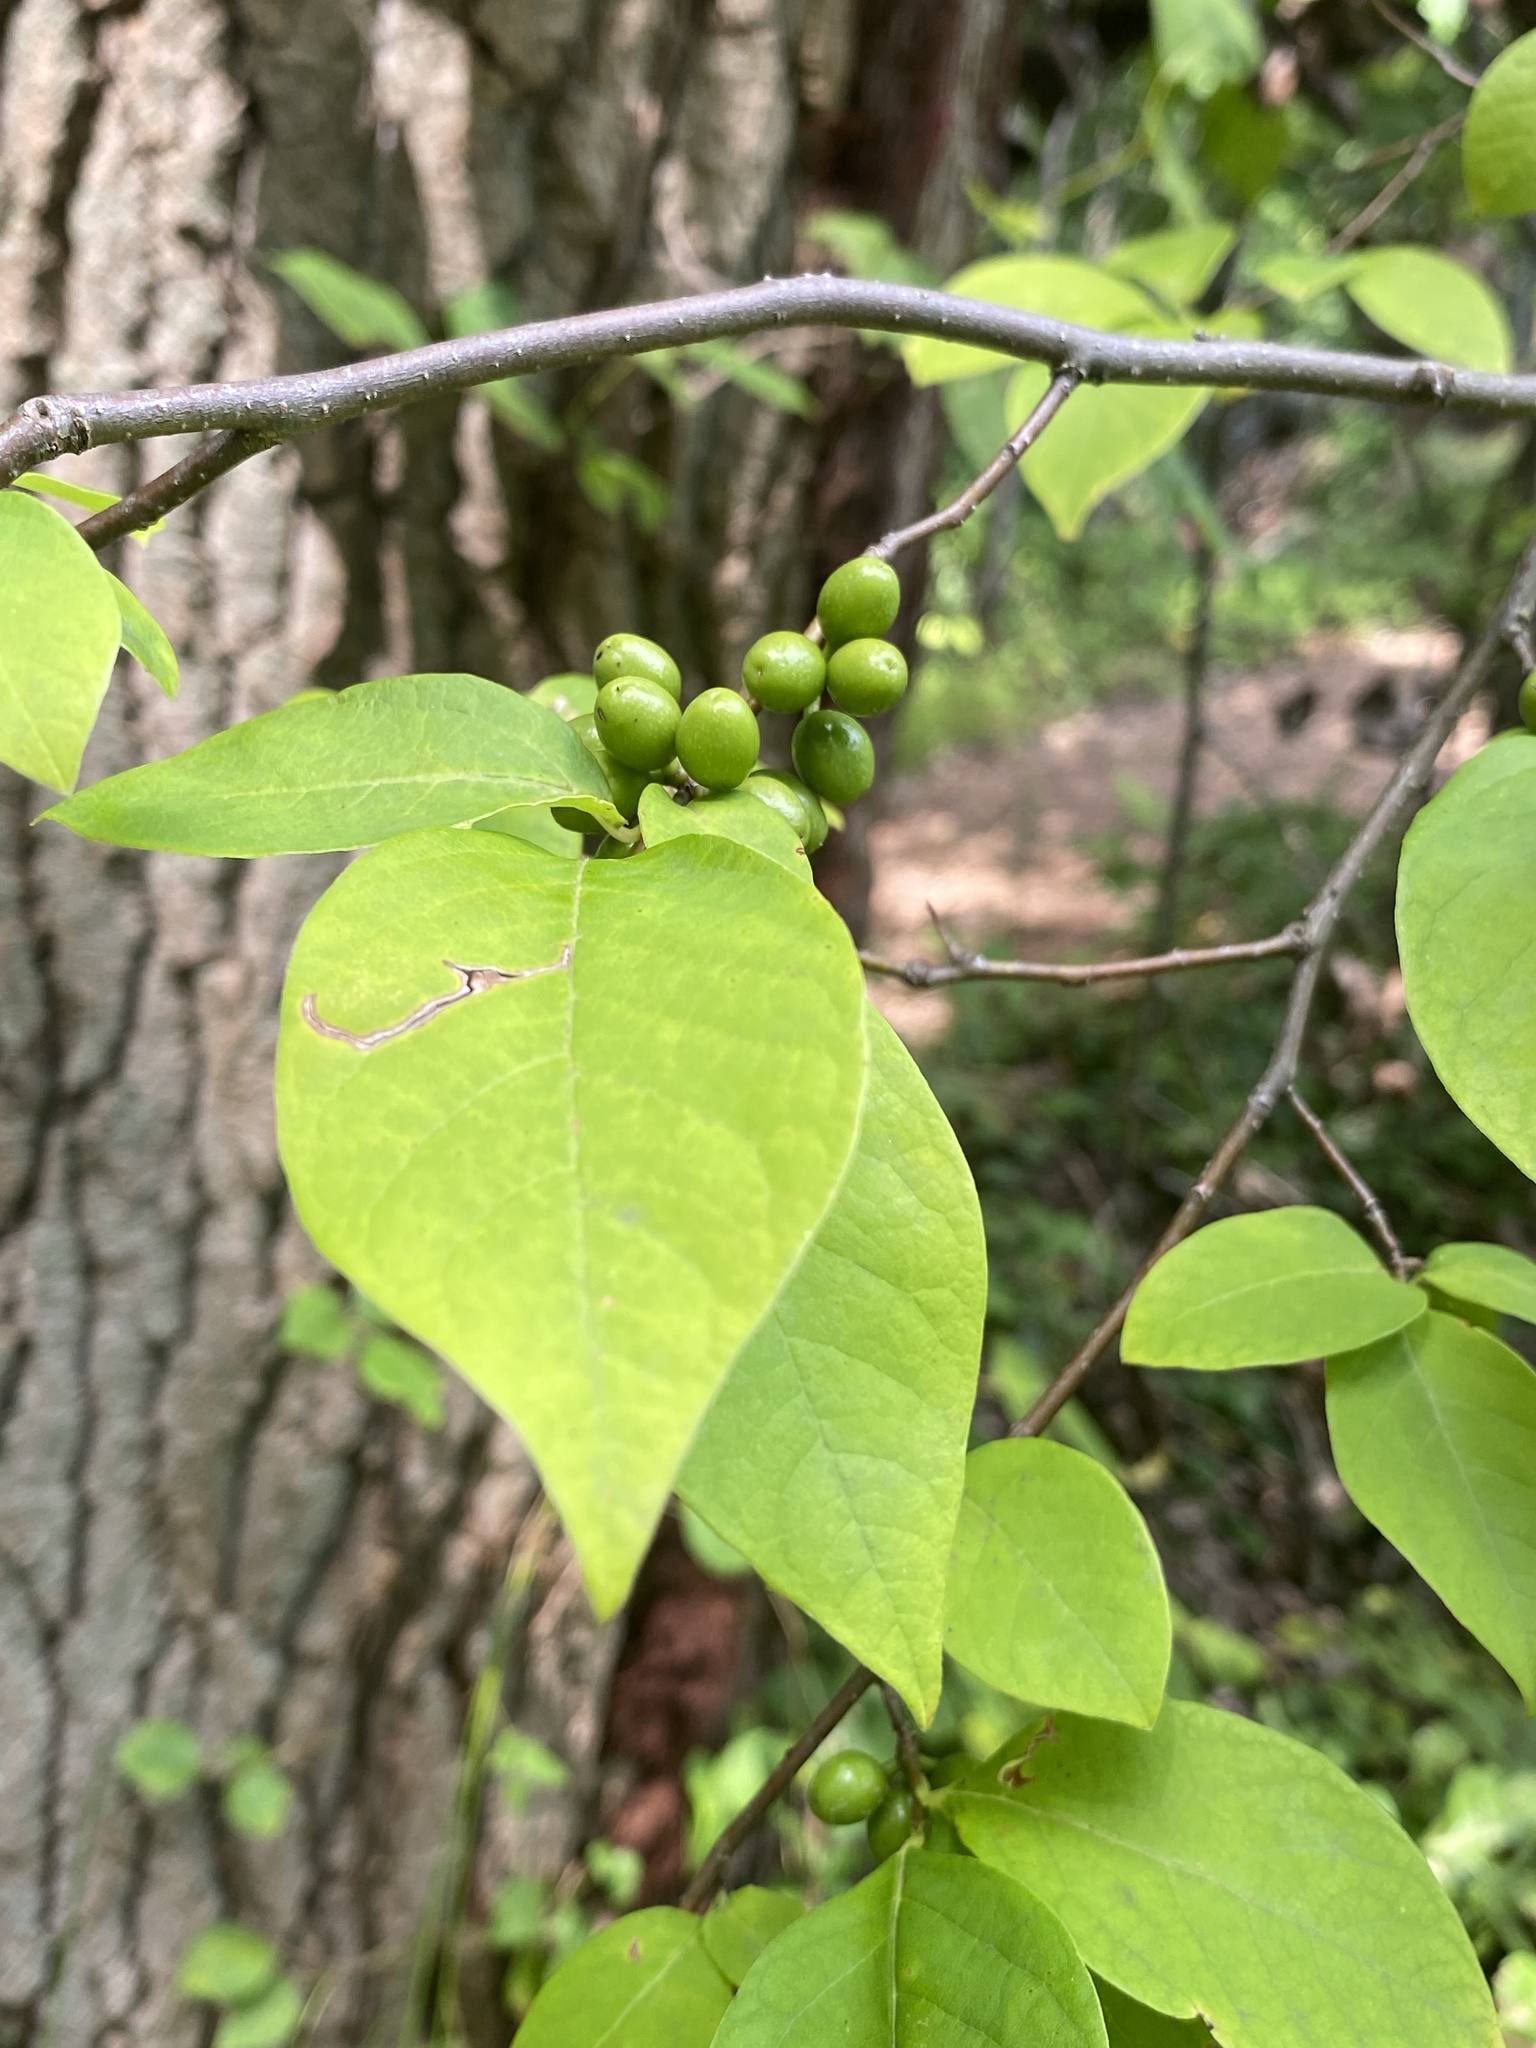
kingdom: Plantae
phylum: Tracheophyta
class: Magnoliopsida
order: Laurales
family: Lauraceae
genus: Lindera
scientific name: Lindera benzoin
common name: Spicebush
